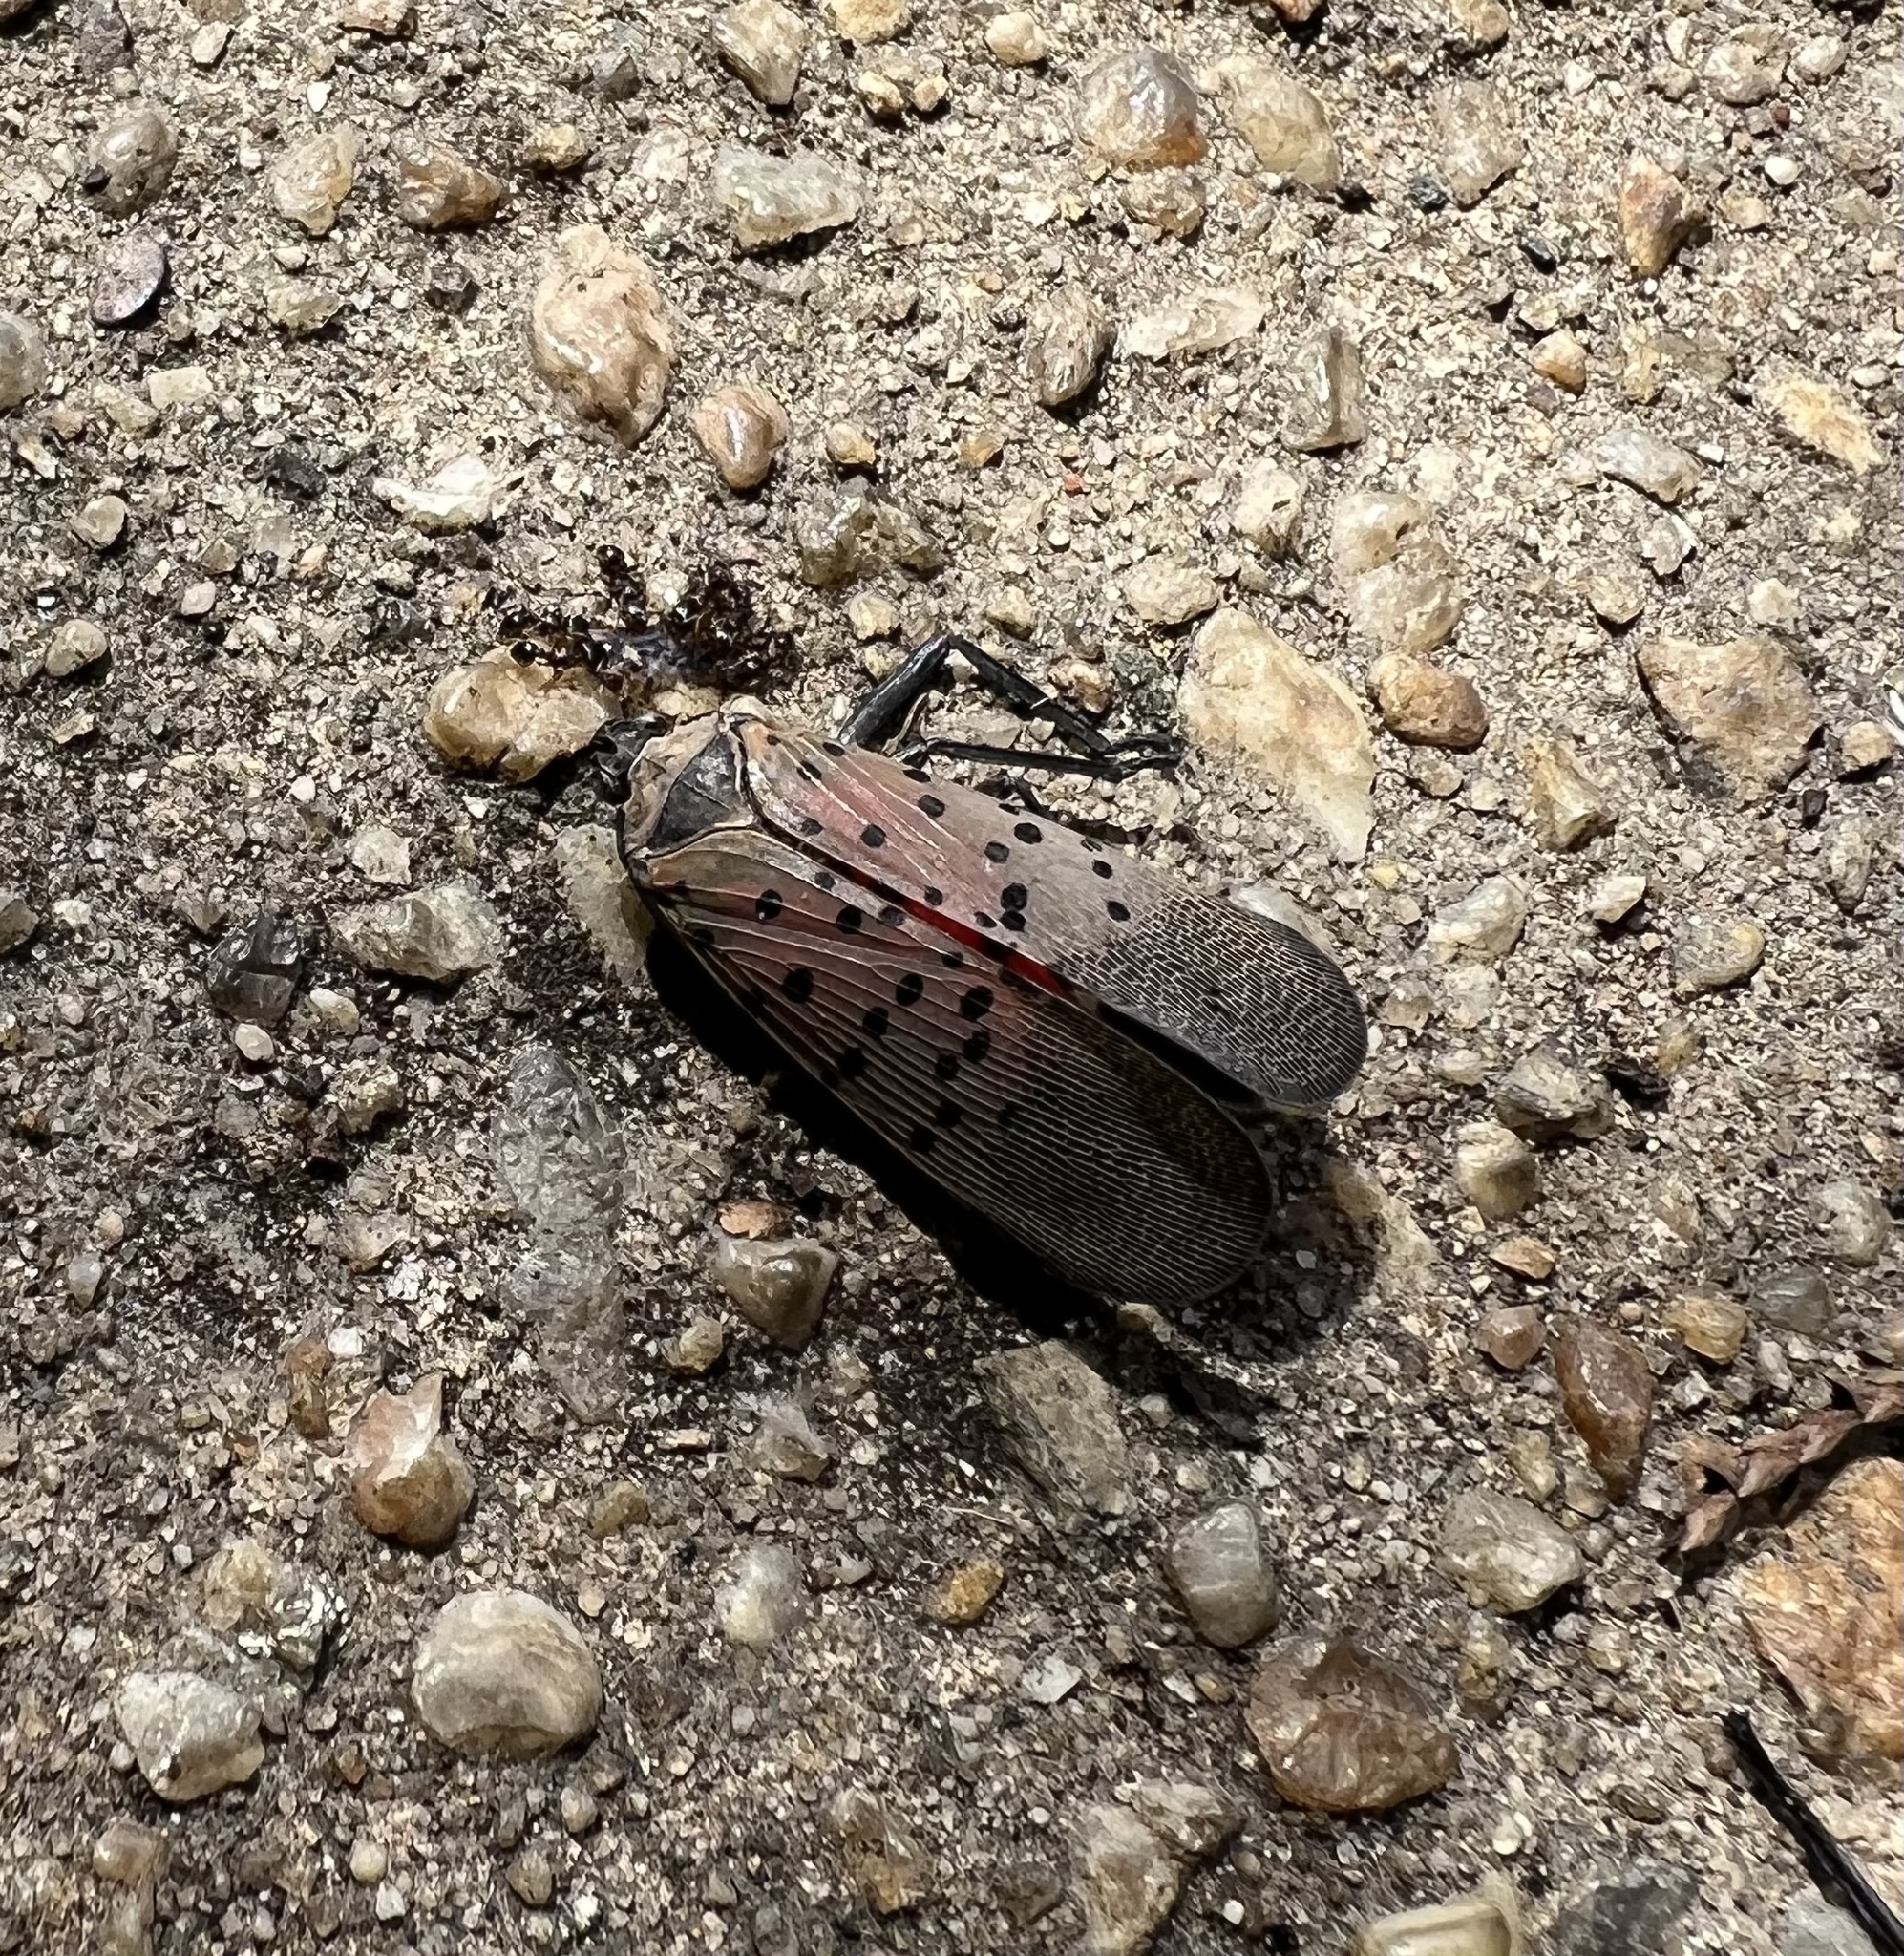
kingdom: Animalia
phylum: Arthropoda
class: Insecta
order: Hemiptera
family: Fulgoridae
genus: Lycorma
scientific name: Lycorma delicatula
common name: Spotted lanternfly
